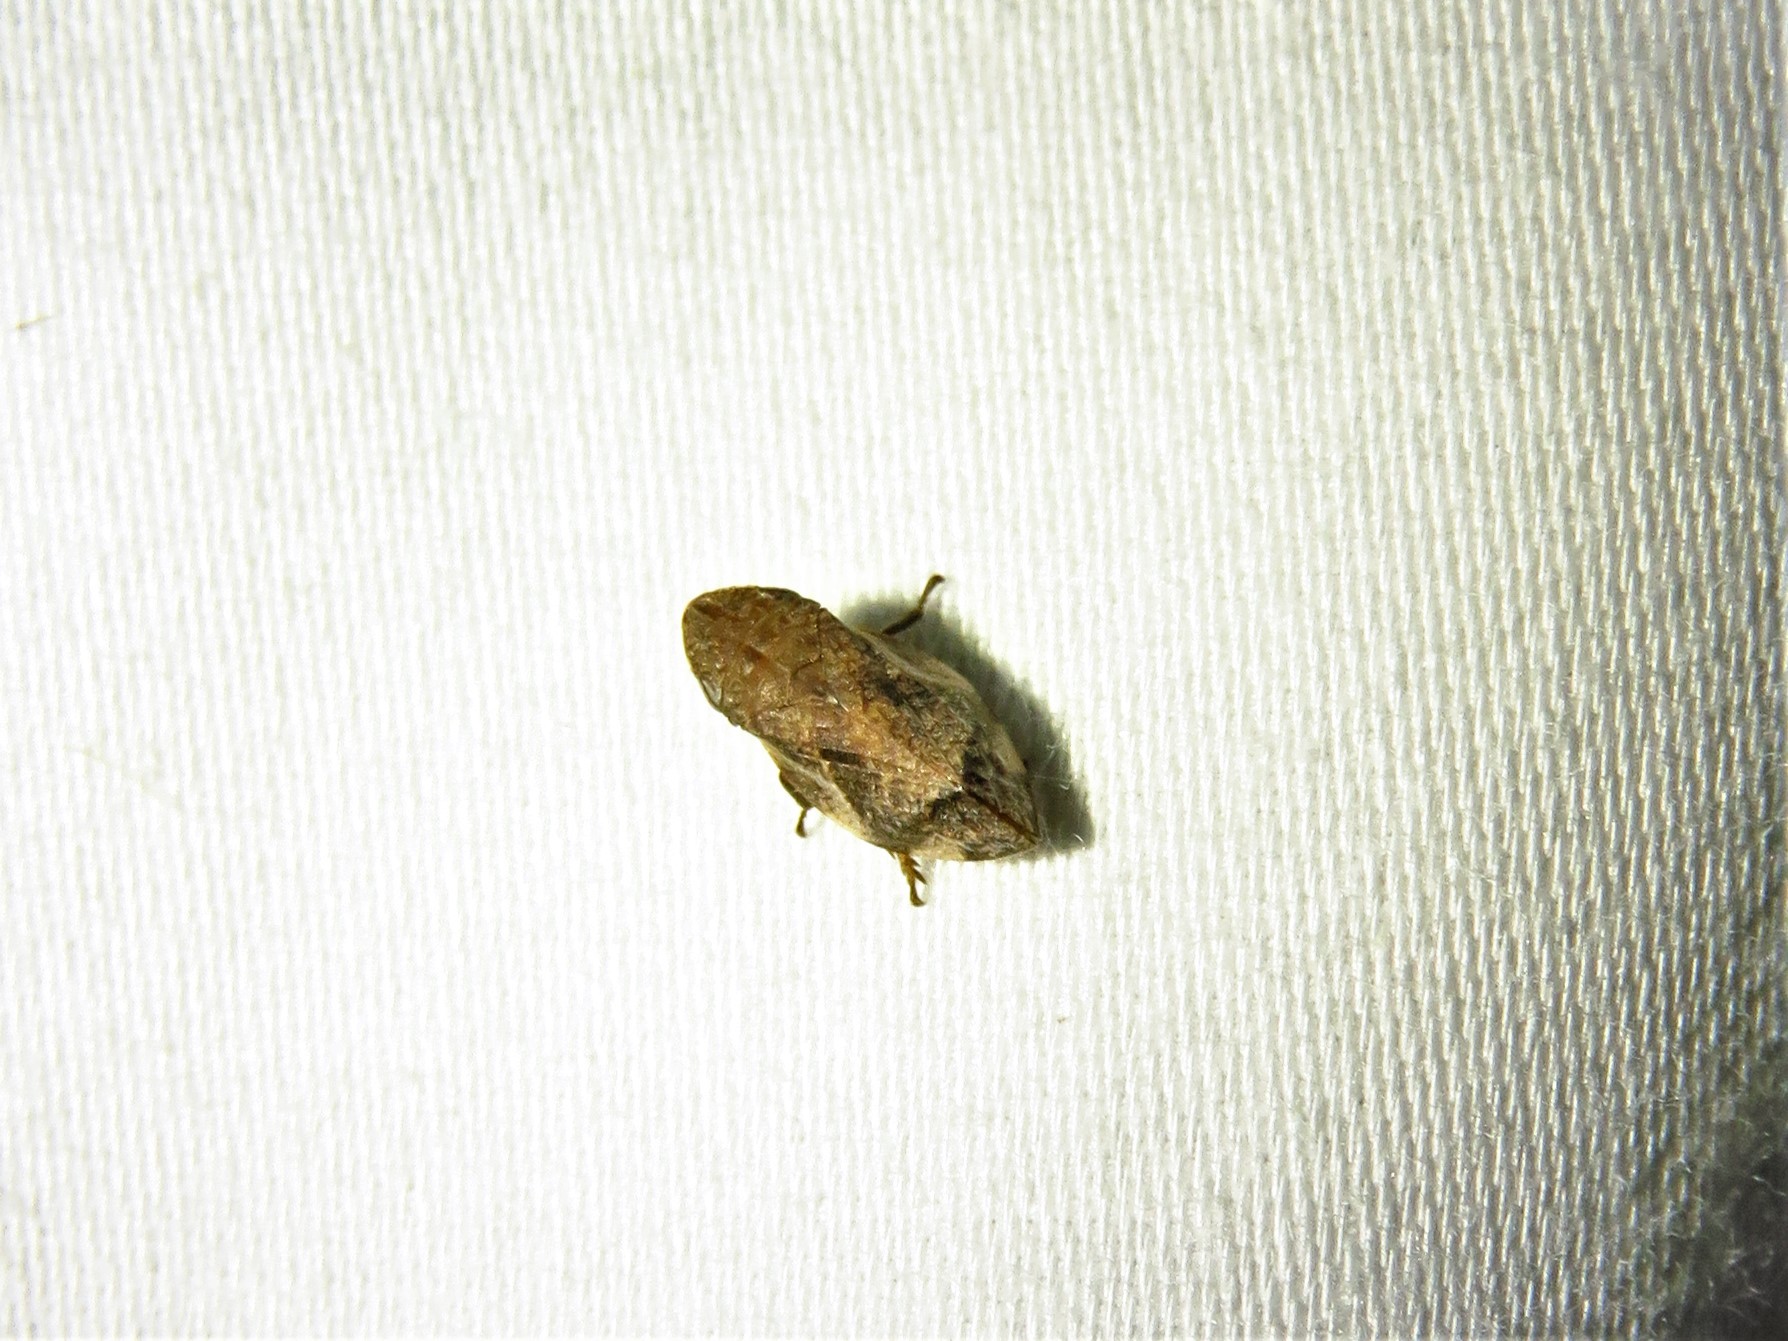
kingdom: Animalia
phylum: Arthropoda
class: Insecta
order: Hemiptera
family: Aphrophoridae
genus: Lepyronia
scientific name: Lepyronia quadrangularis
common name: Diamond-backed spittlebug
